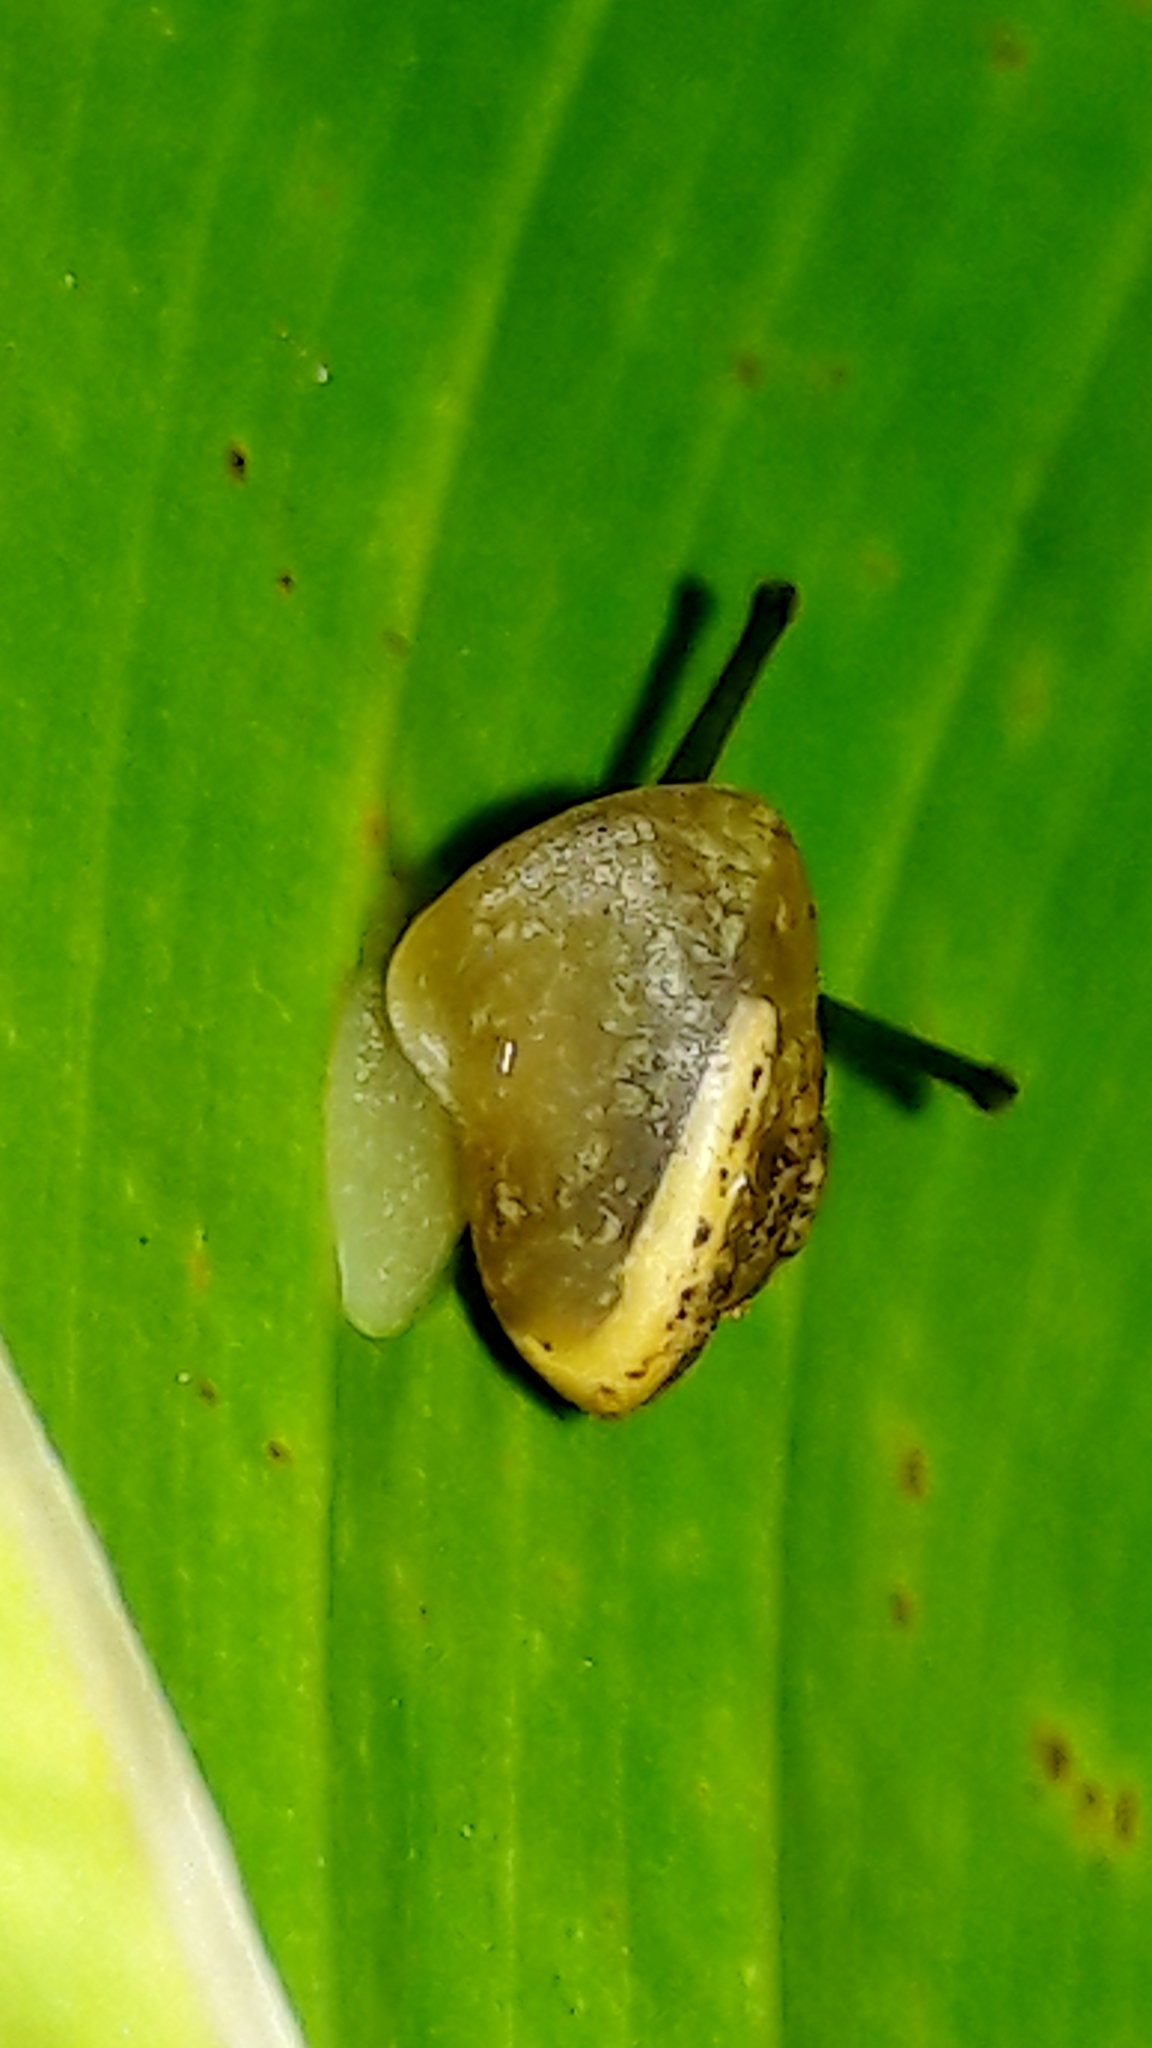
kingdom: Animalia
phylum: Mollusca
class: Gastropoda
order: Stylommatophora
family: Camaenidae
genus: Bradybaena
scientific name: Bradybaena similaris
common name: Asian trampsnail
